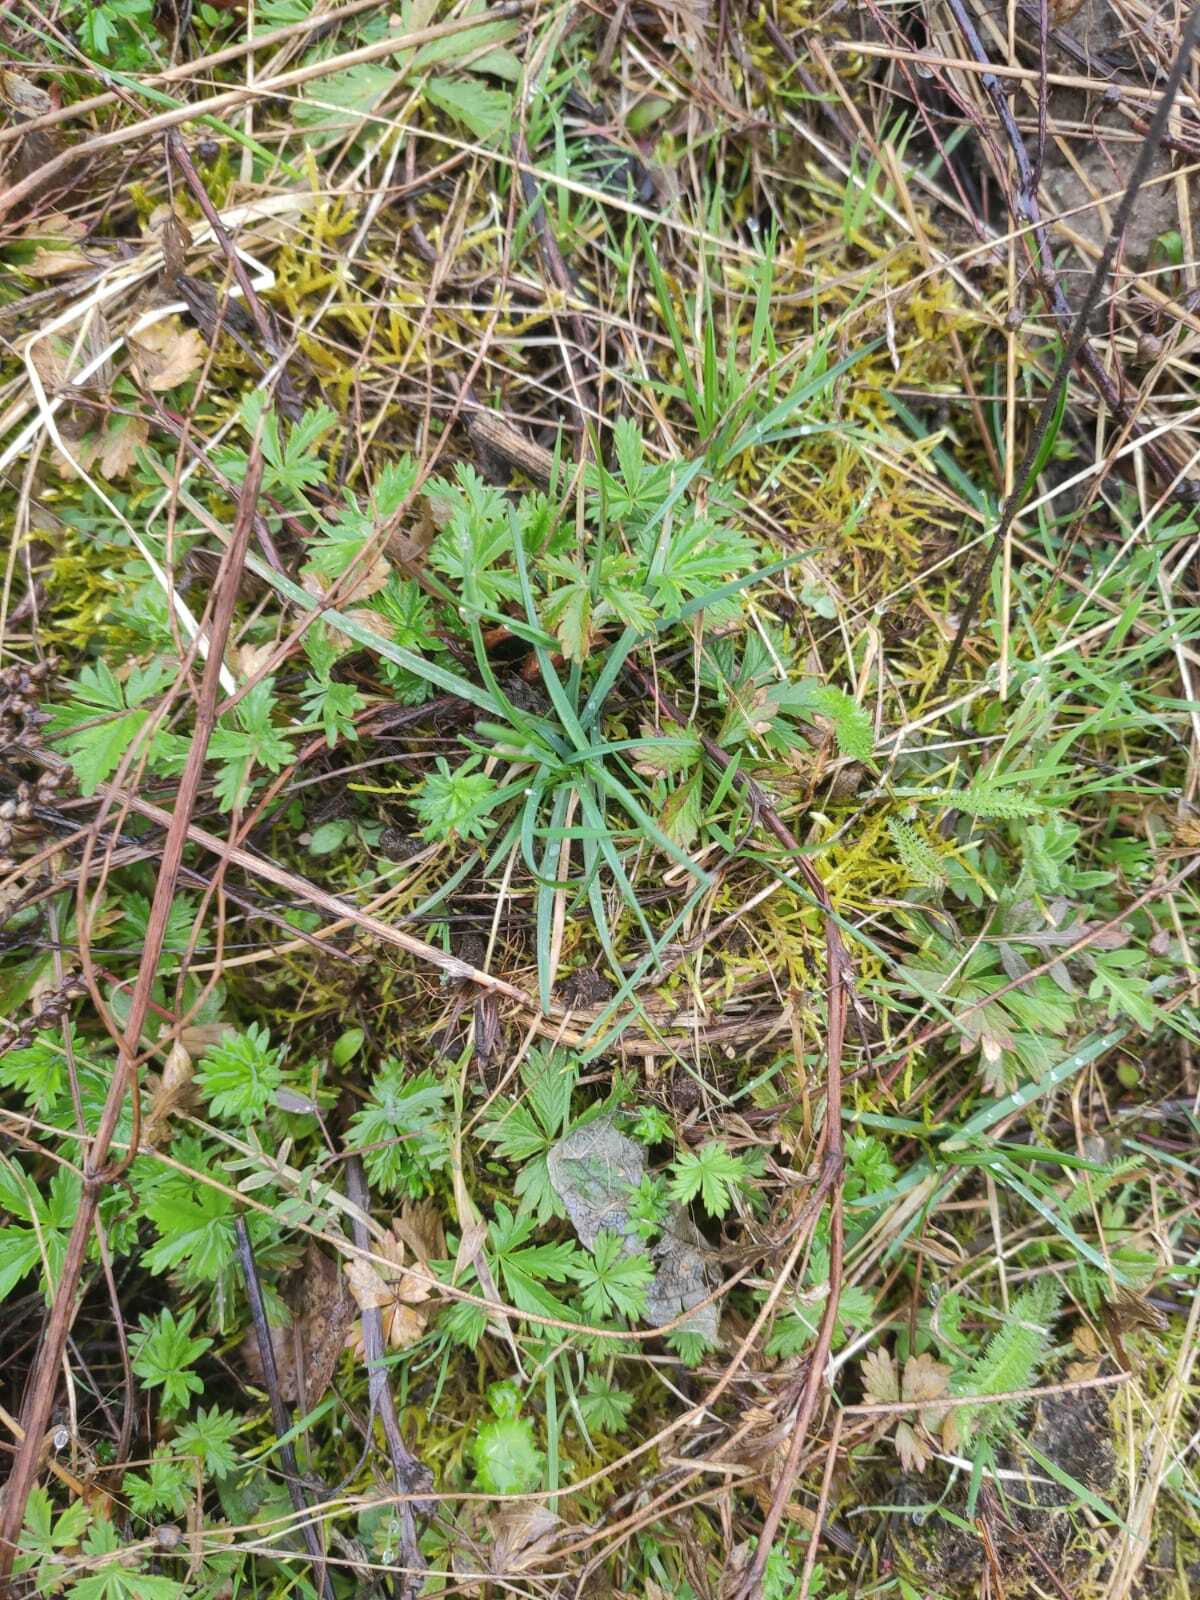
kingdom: Plantae
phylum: Tracheophyta
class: Magnoliopsida
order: Rosales
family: Rosaceae
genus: Potentilla
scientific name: Potentilla intermedia
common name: Downy cinquefoil
